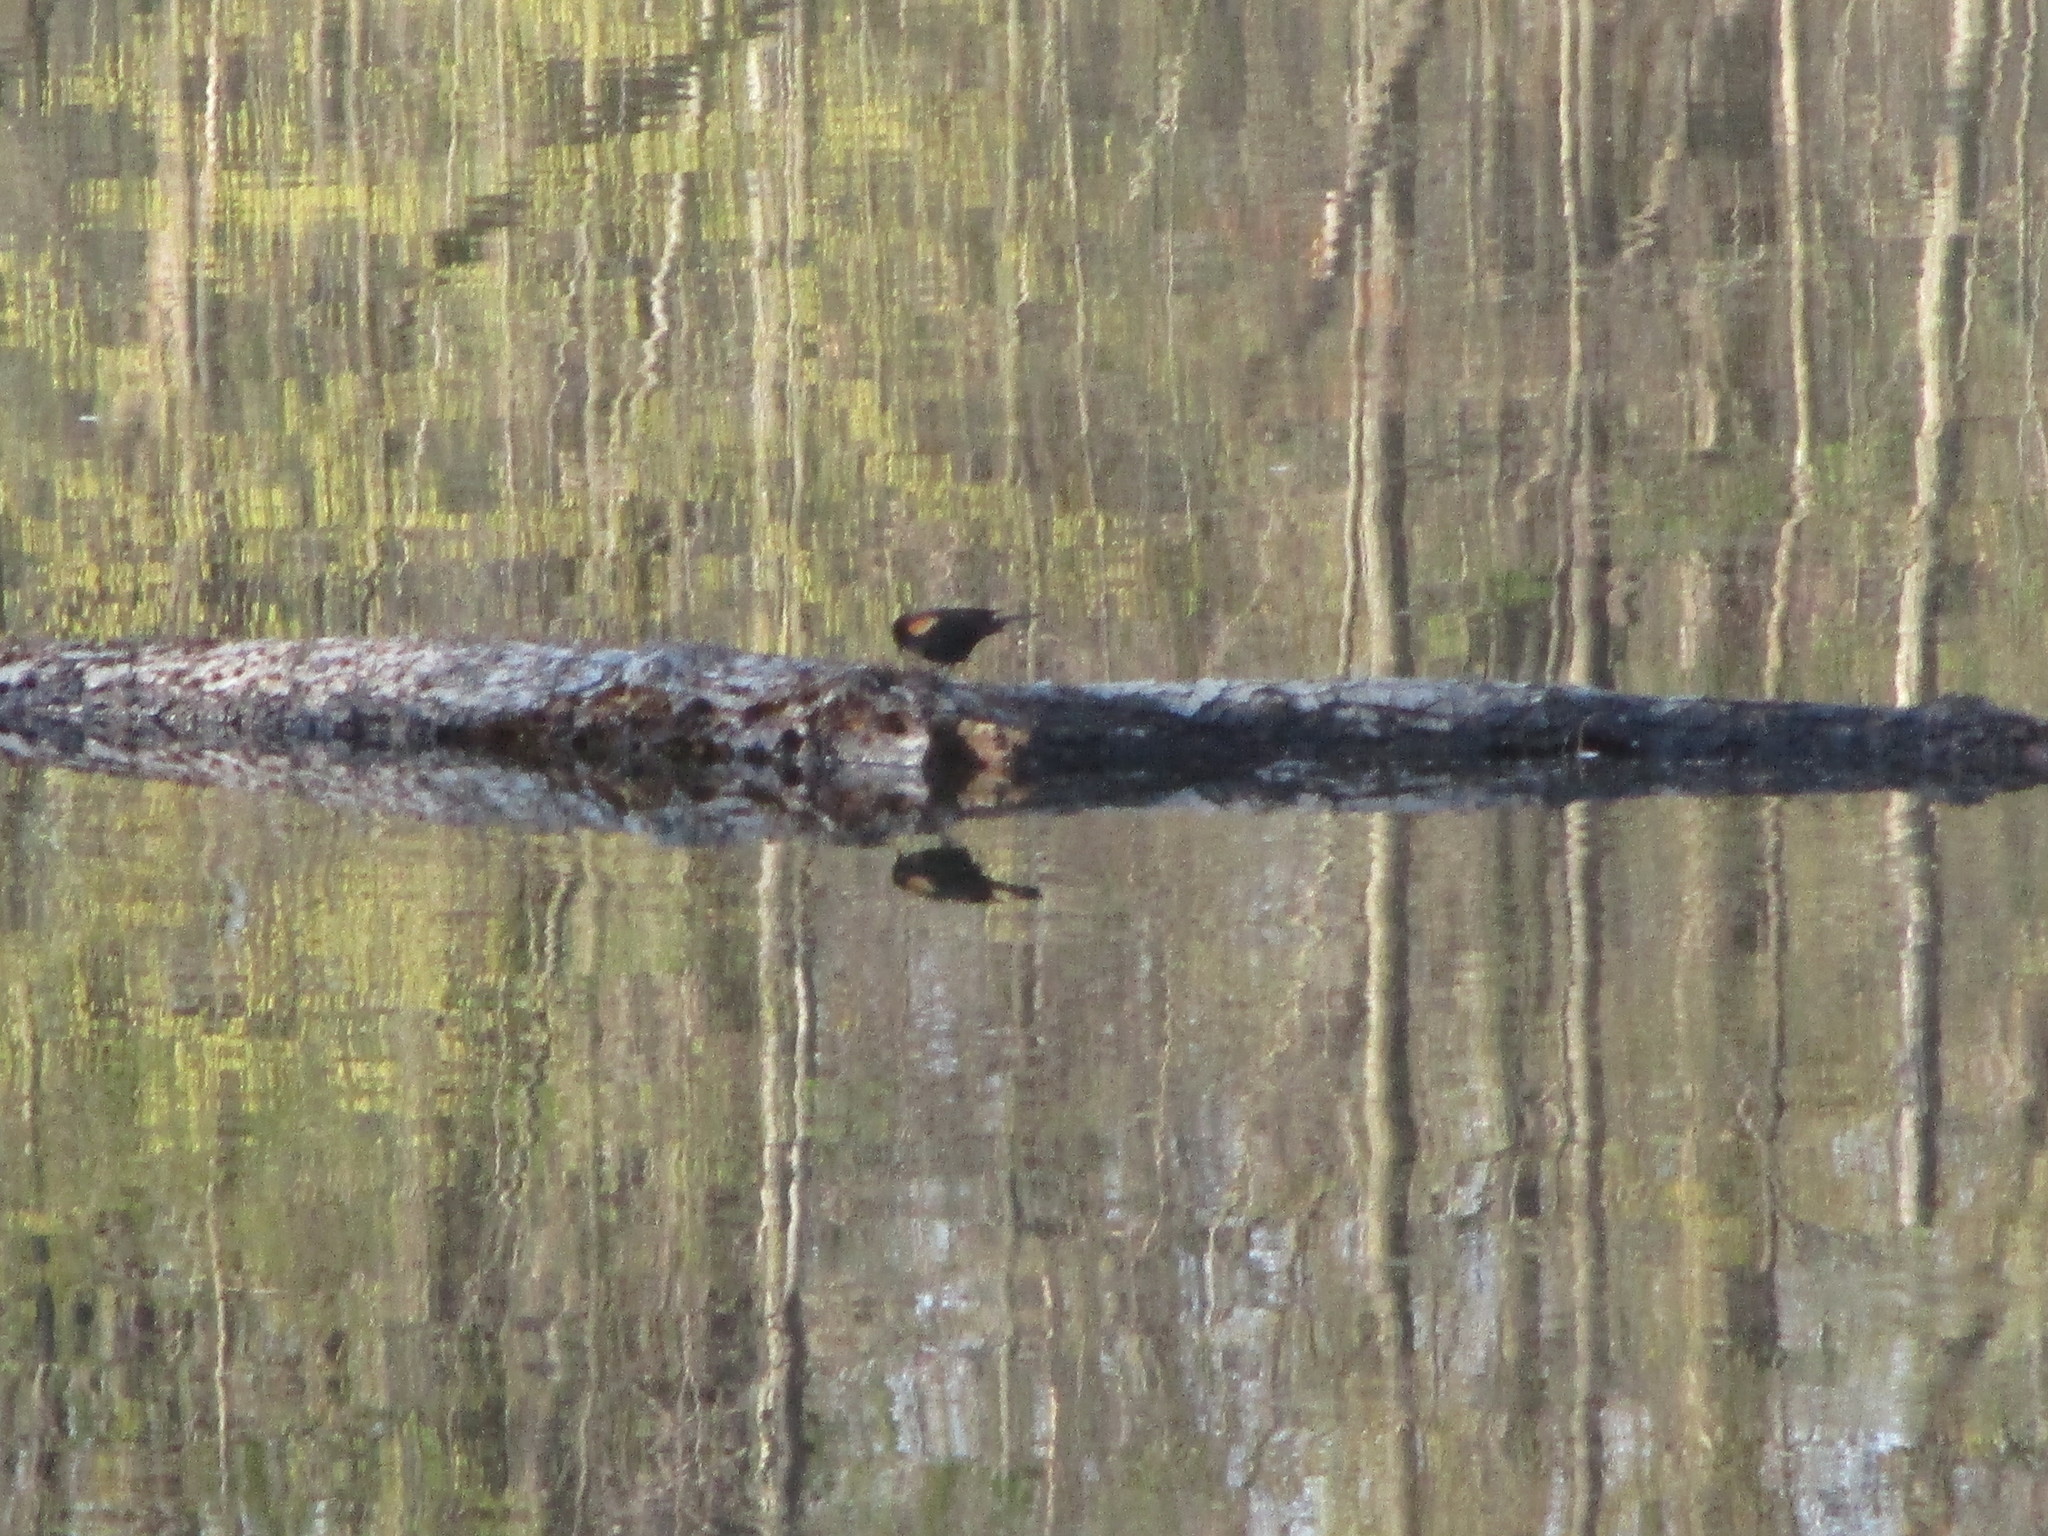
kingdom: Animalia
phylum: Chordata
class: Aves
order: Passeriformes
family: Icteridae
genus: Agelaius
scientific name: Agelaius phoeniceus
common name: Red-winged blackbird
